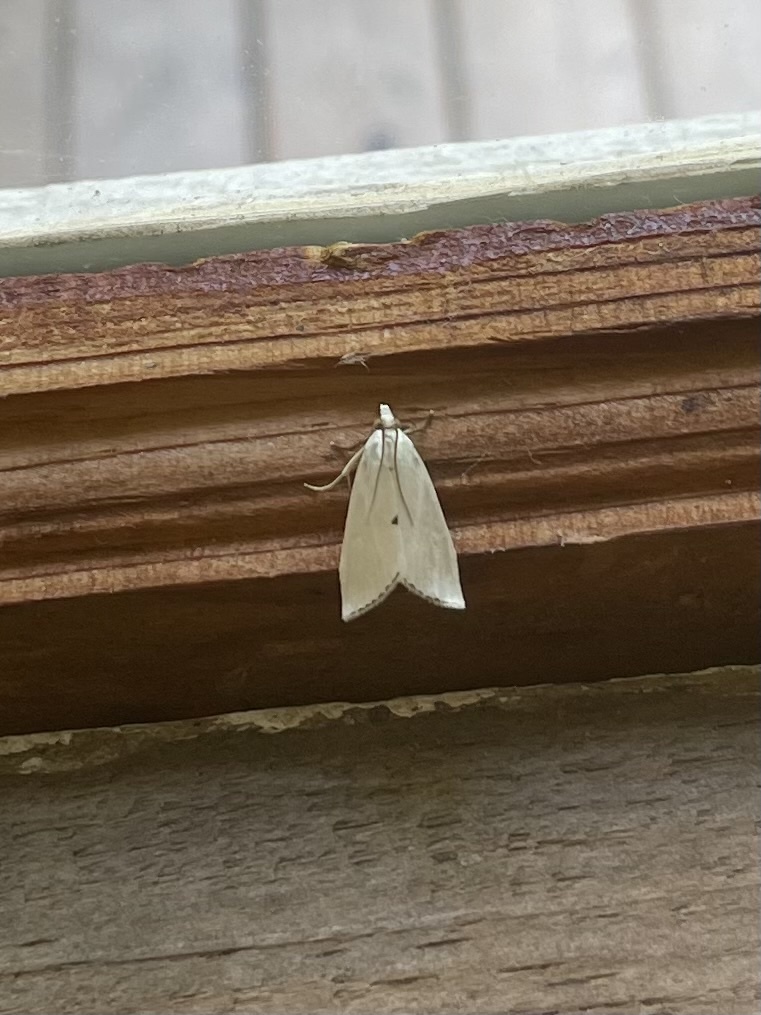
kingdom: Animalia
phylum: Arthropoda
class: Insecta
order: Lepidoptera
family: Crambidae
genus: Argyria
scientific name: Argyria nivalis
